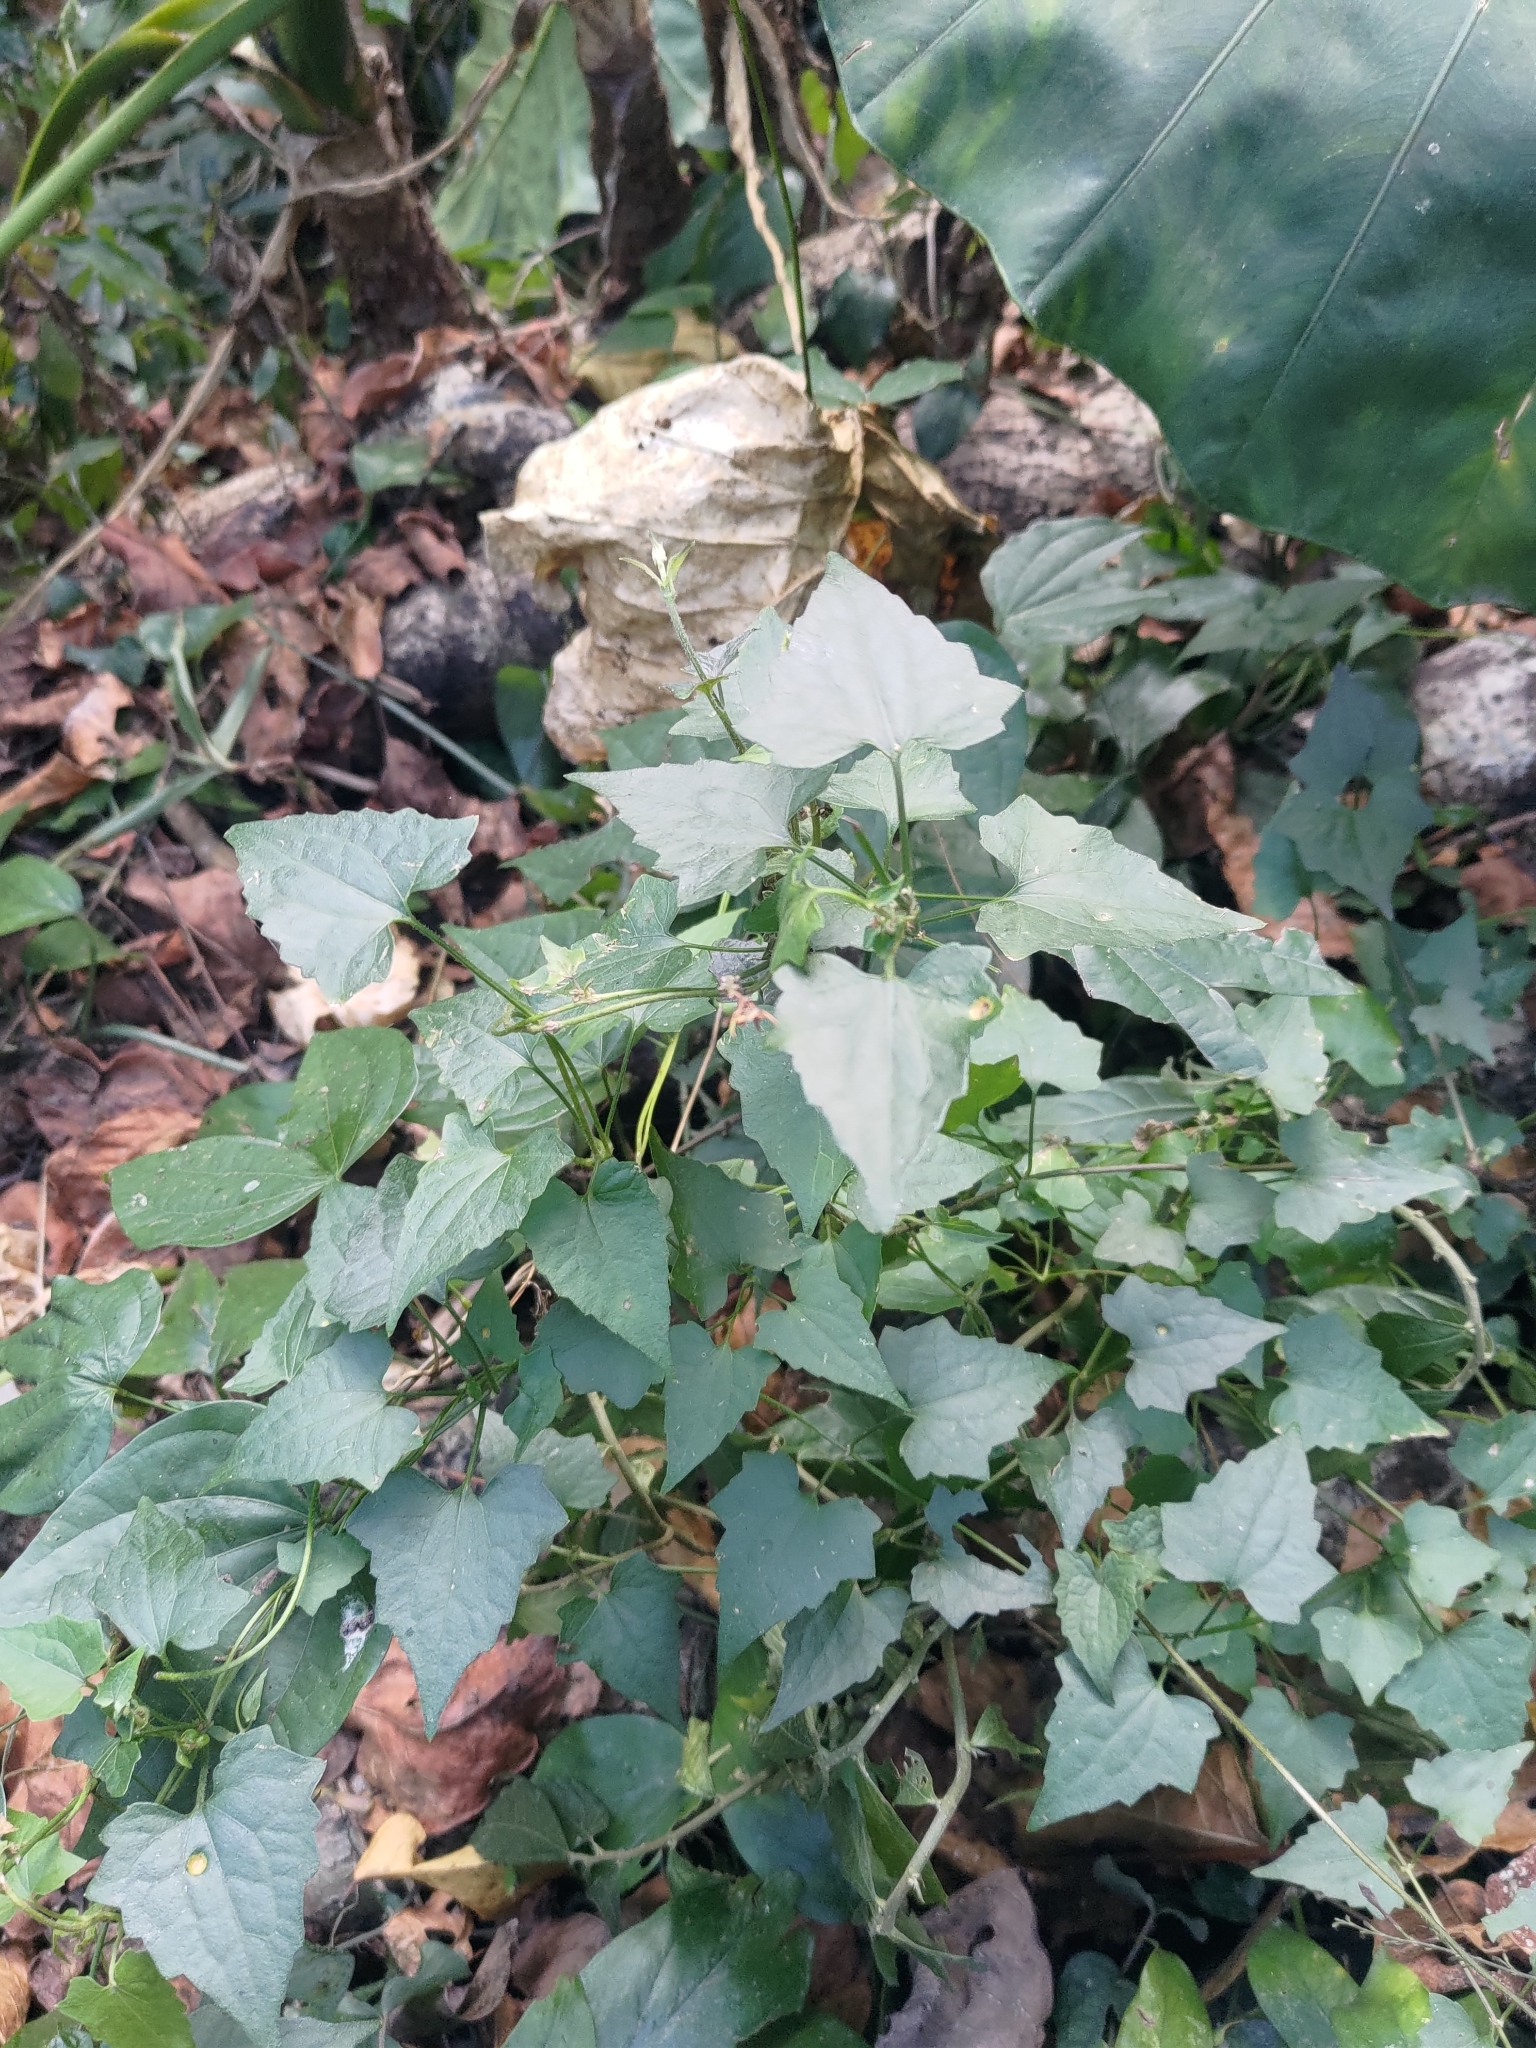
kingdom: Plantae
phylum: Tracheophyta
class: Magnoliopsida
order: Asterales
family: Asteraceae
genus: Mikania
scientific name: Mikania micrantha
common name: Mile-a-minute
